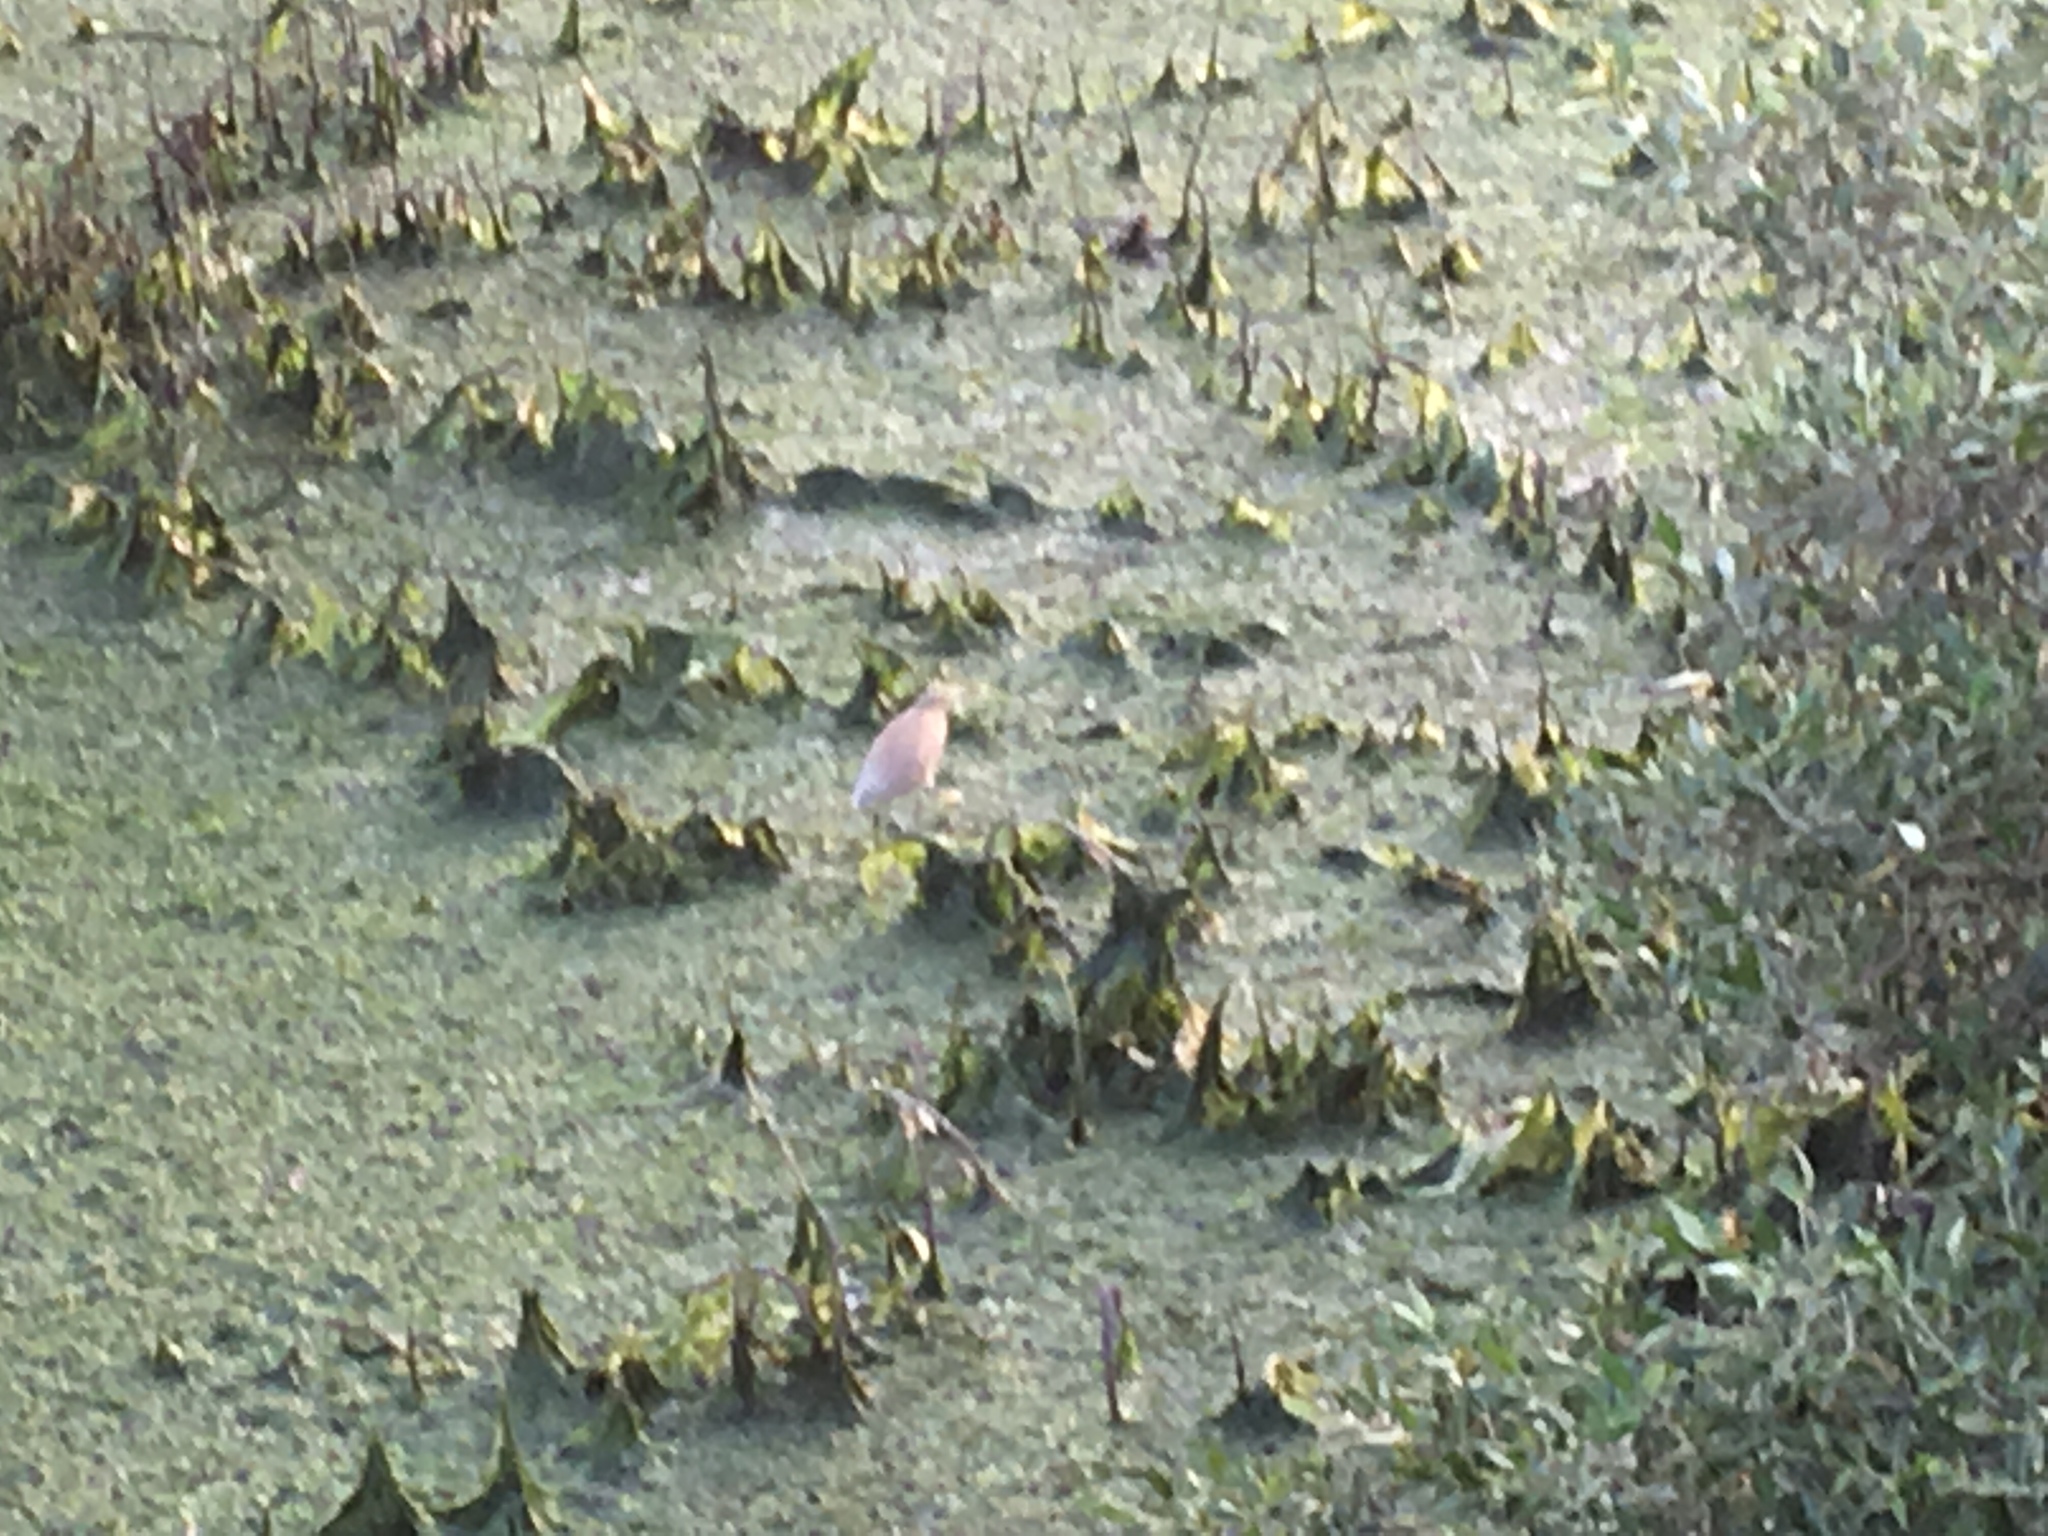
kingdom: Animalia
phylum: Chordata
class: Aves
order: Pelecaniformes
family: Ardeidae
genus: Ardeola
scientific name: Ardeola grayii
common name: Indian pond heron
